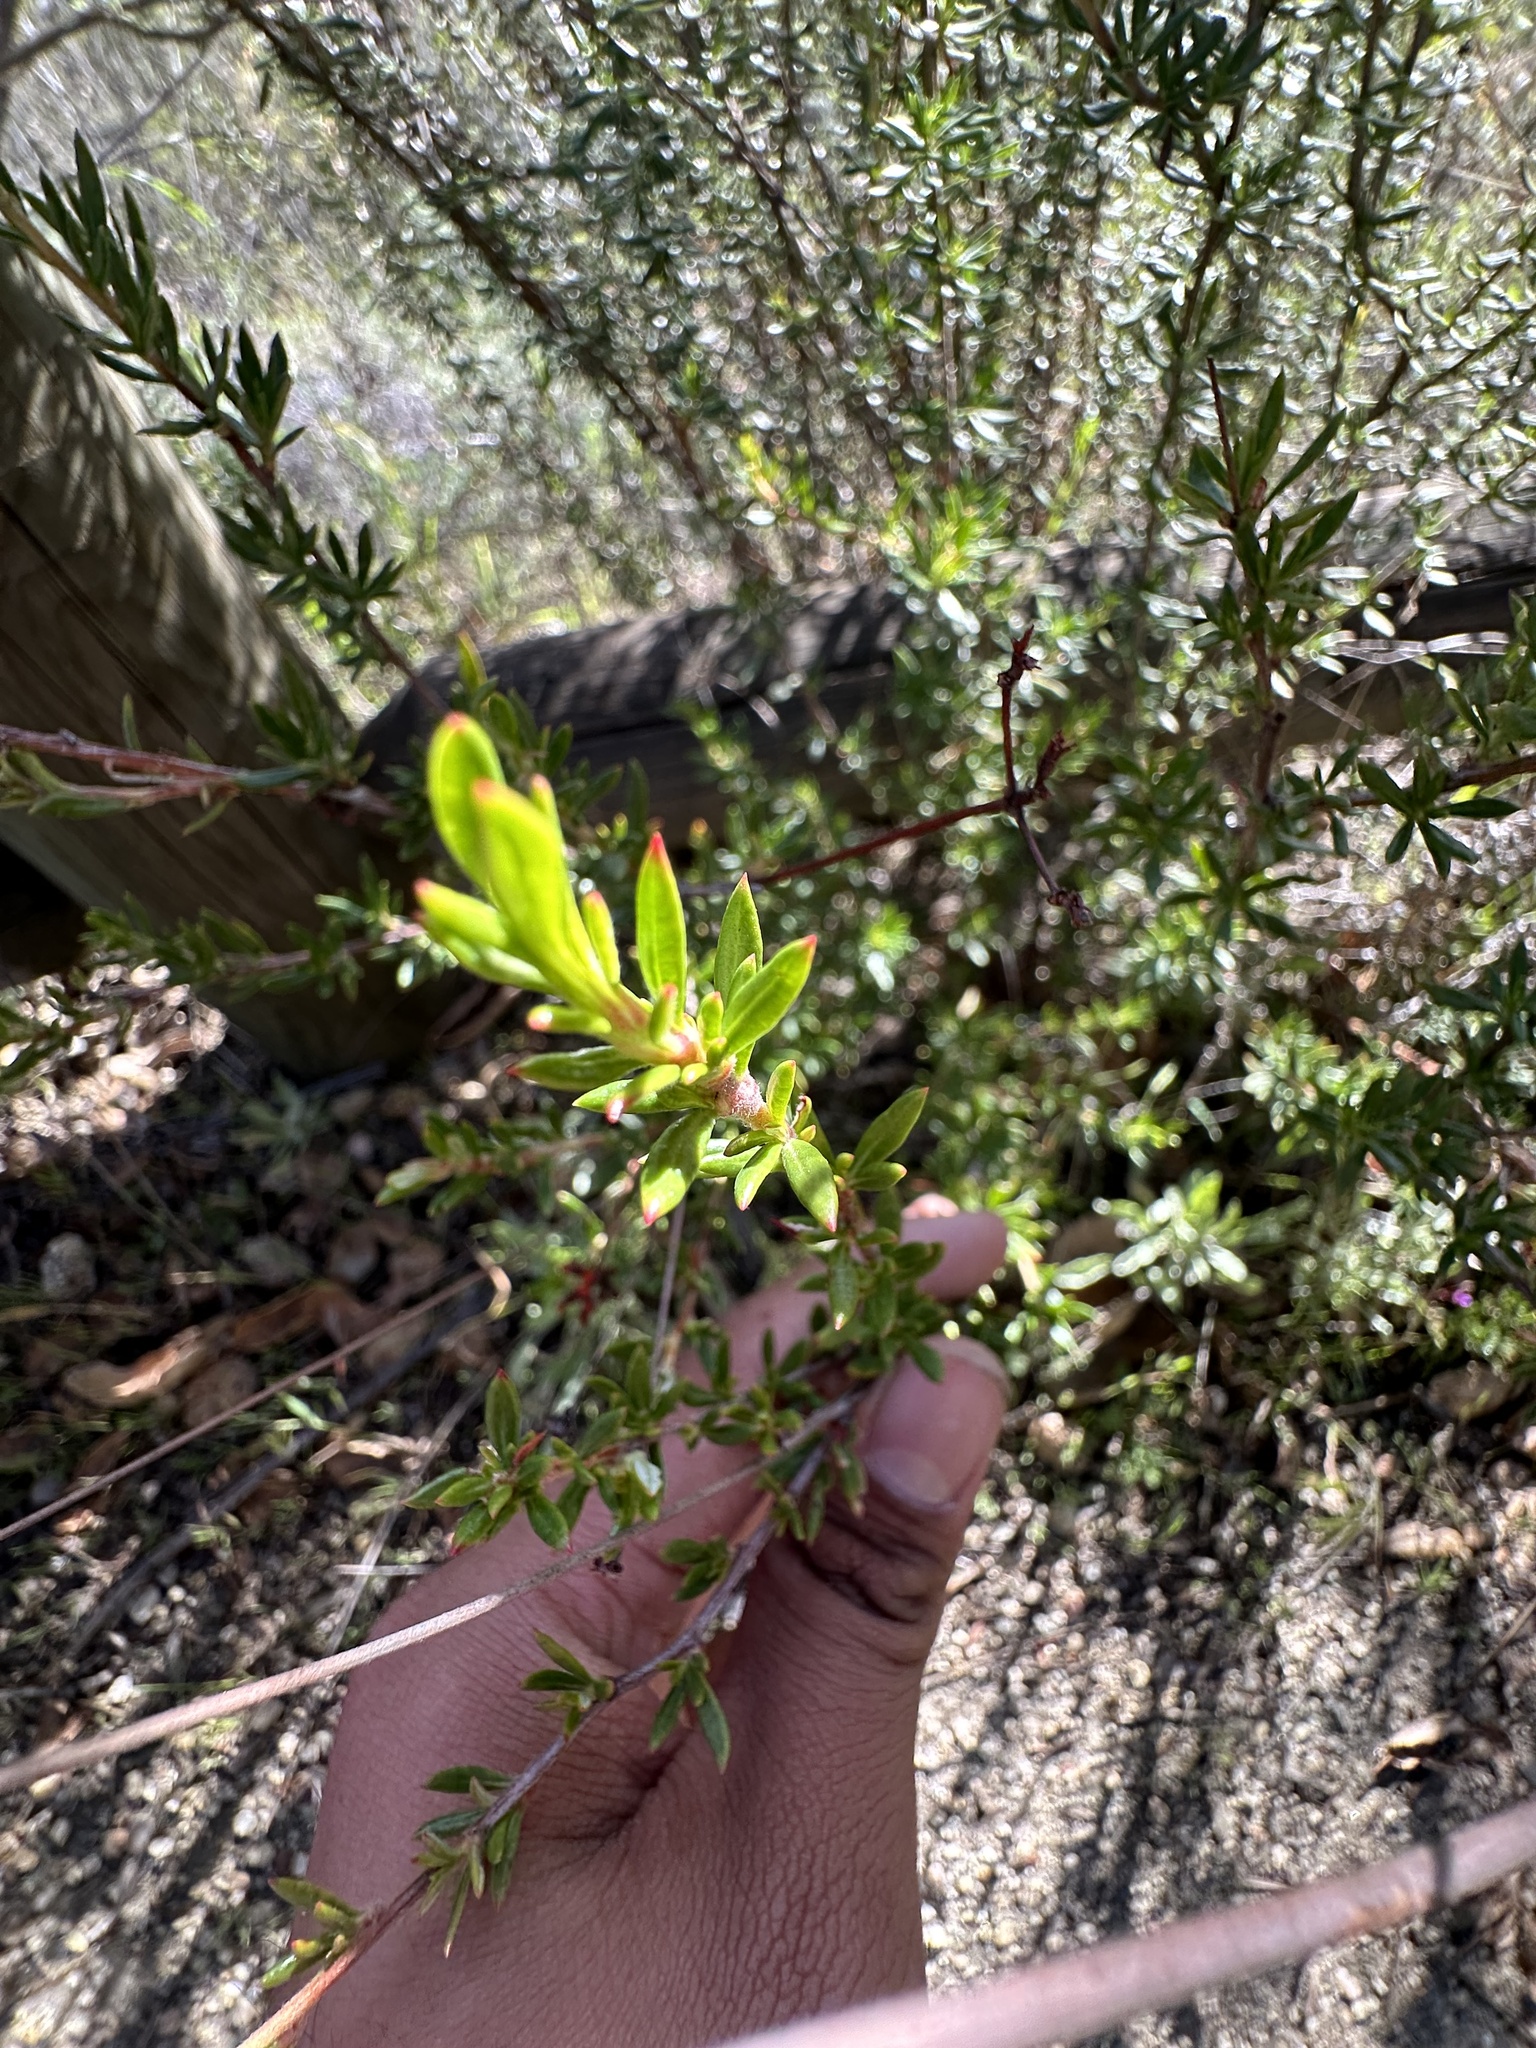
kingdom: Plantae
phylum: Tracheophyta
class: Magnoliopsida
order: Caryophyllales
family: Polygonaceae
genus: Eriogonum
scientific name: Eriogonum fasciculatum
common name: California wild buckwheat
